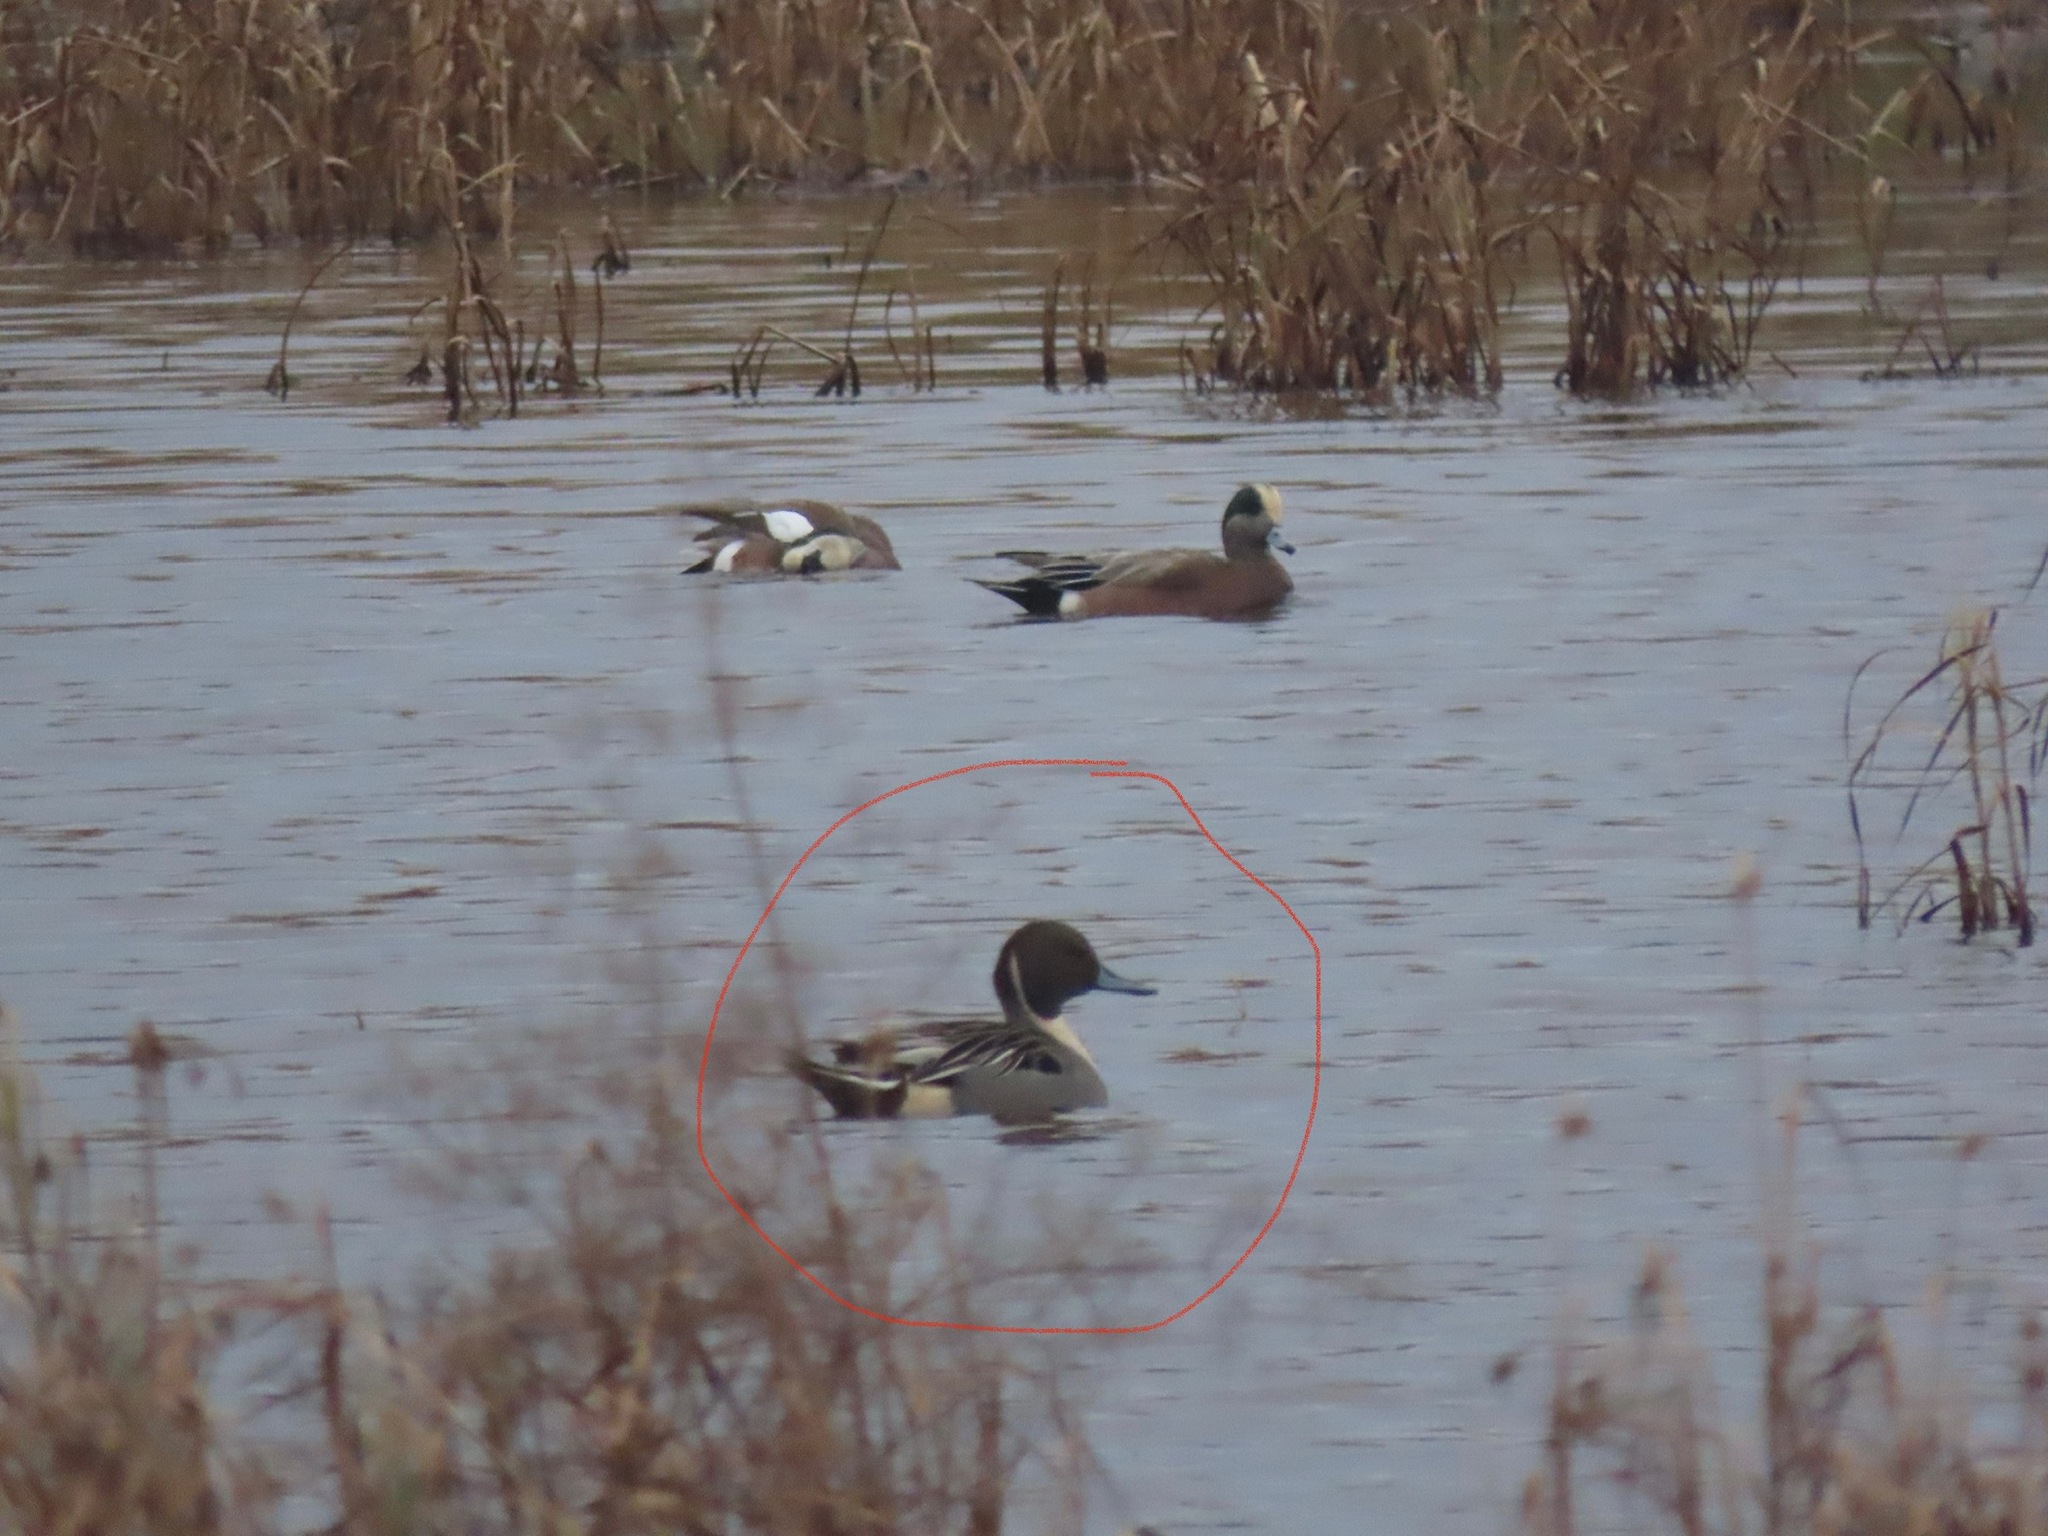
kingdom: Animalia
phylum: Chordata
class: Aves
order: Anseriformes
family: Anatidae
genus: Anas
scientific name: Anas acuta
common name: Northern pintail
